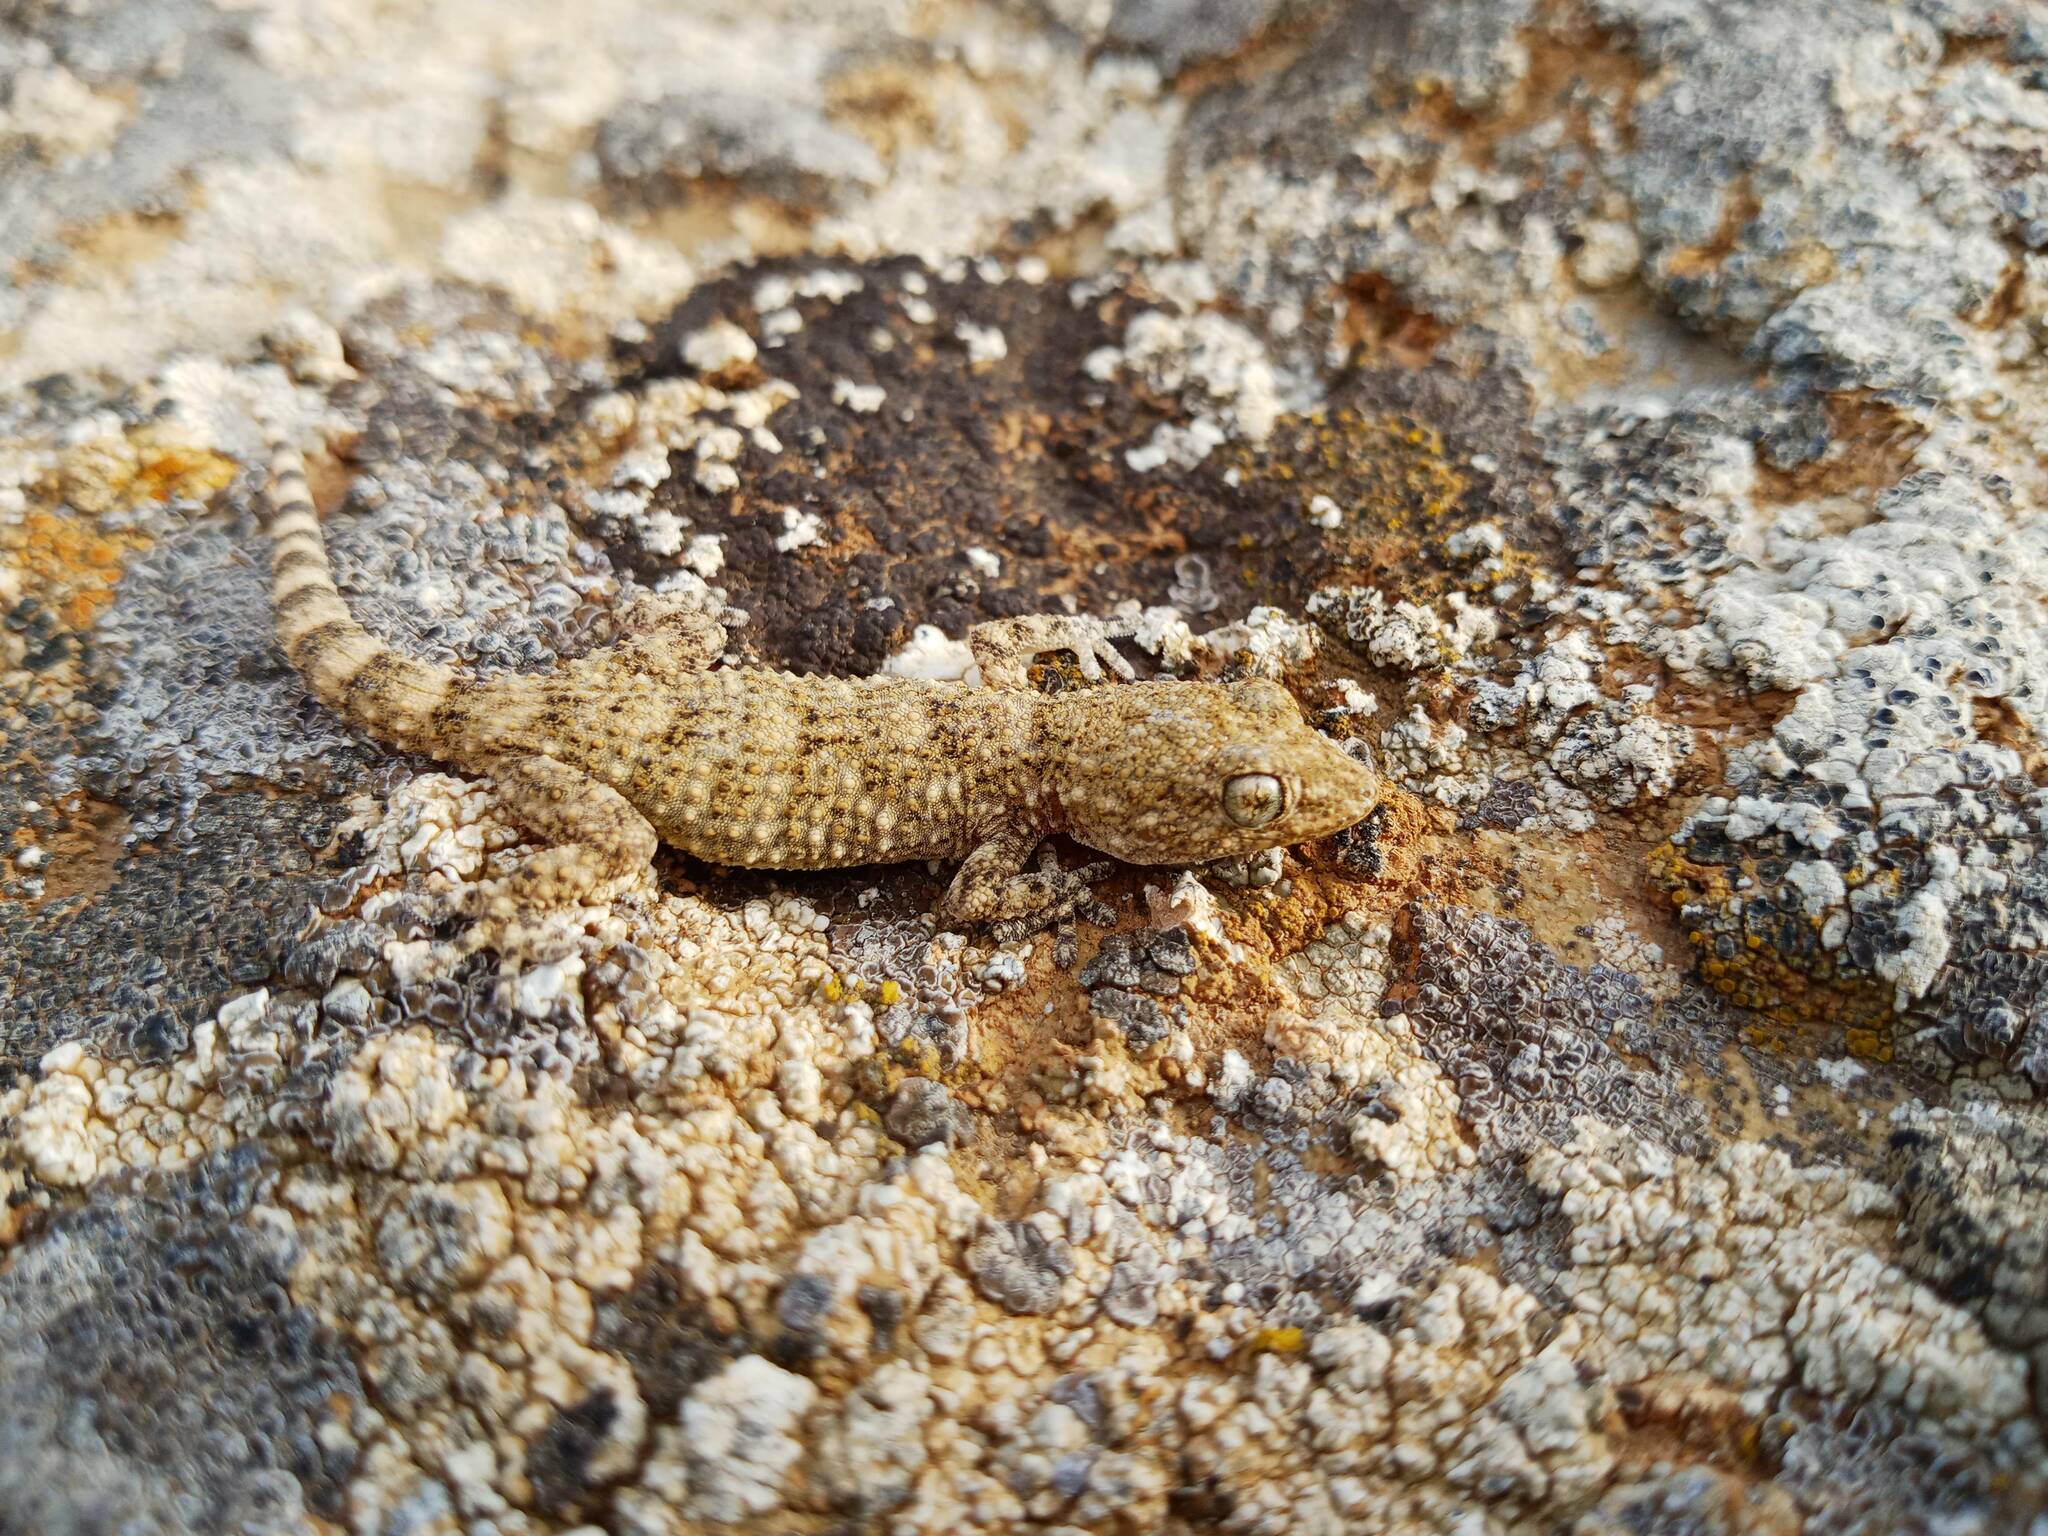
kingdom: Animalia
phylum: Chordata
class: Squamata
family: Phyllodactylidae
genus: Tarentola
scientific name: Tarentola mauritanica
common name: Moorish gecko
